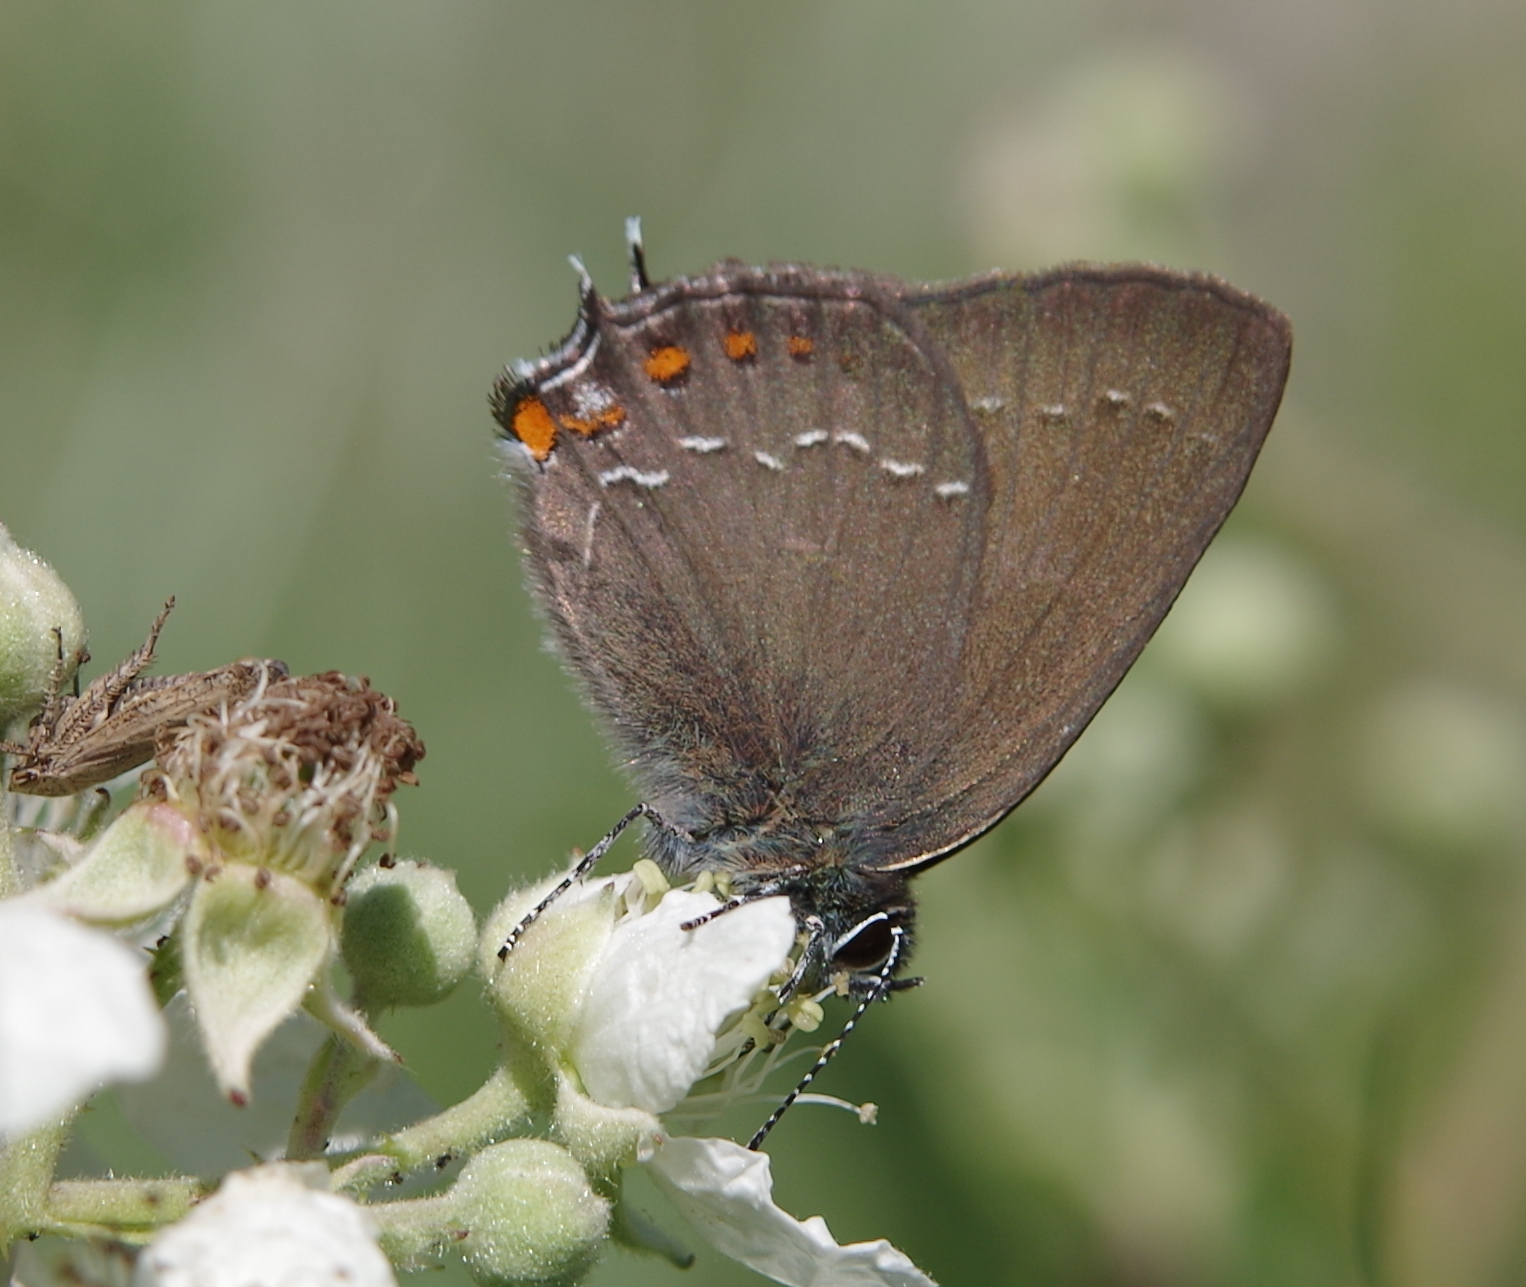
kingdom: Animalia
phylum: Arthropoda
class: Insecta
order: Lepidoptera
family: Lycaenidae
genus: Nordmannia
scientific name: Nordmannia ilicis
